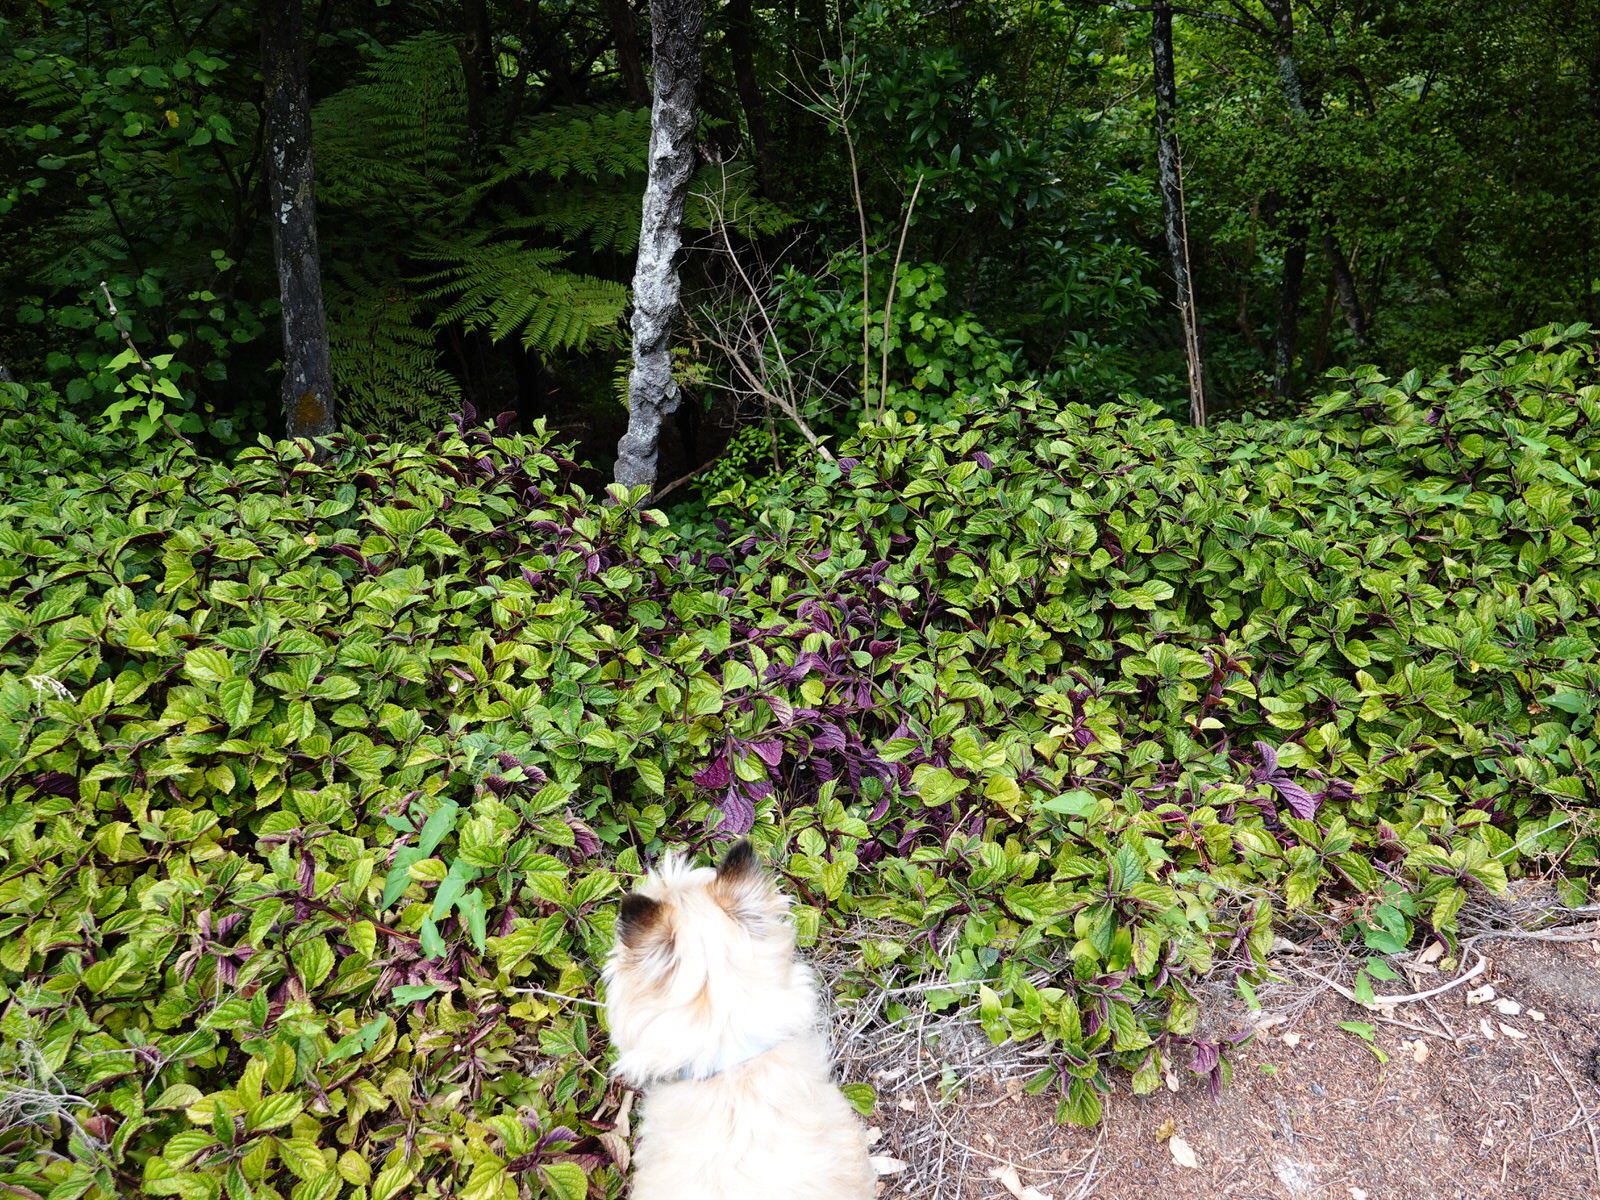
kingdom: Plantae
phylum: Tracheophyta
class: Magnoliopsida
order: Lamiales
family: Lamiaceae
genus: Plectranthus
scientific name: Plectranthus ciliatus
